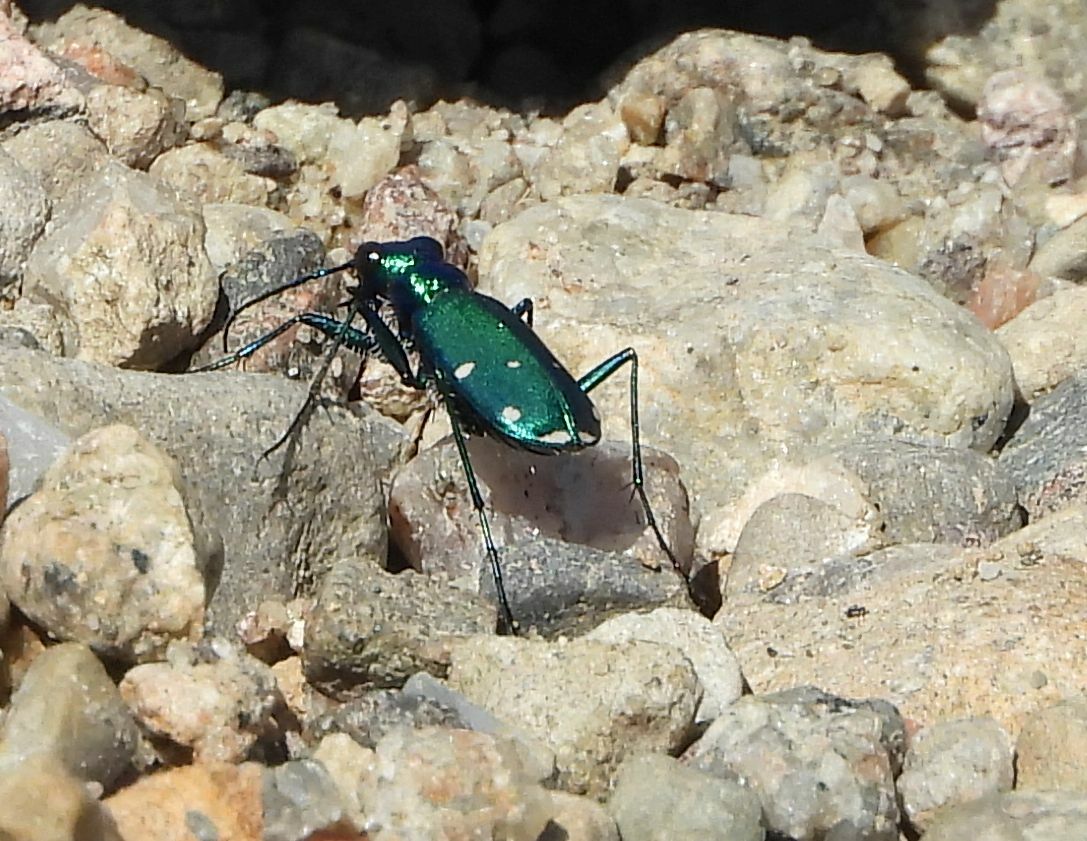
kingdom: Animalia
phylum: Arthropoda
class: Insecta
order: Coleoptera
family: Carabidae
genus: Cicindela
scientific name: Cicindela sexguttata
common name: Six-spotted tiger beetle
